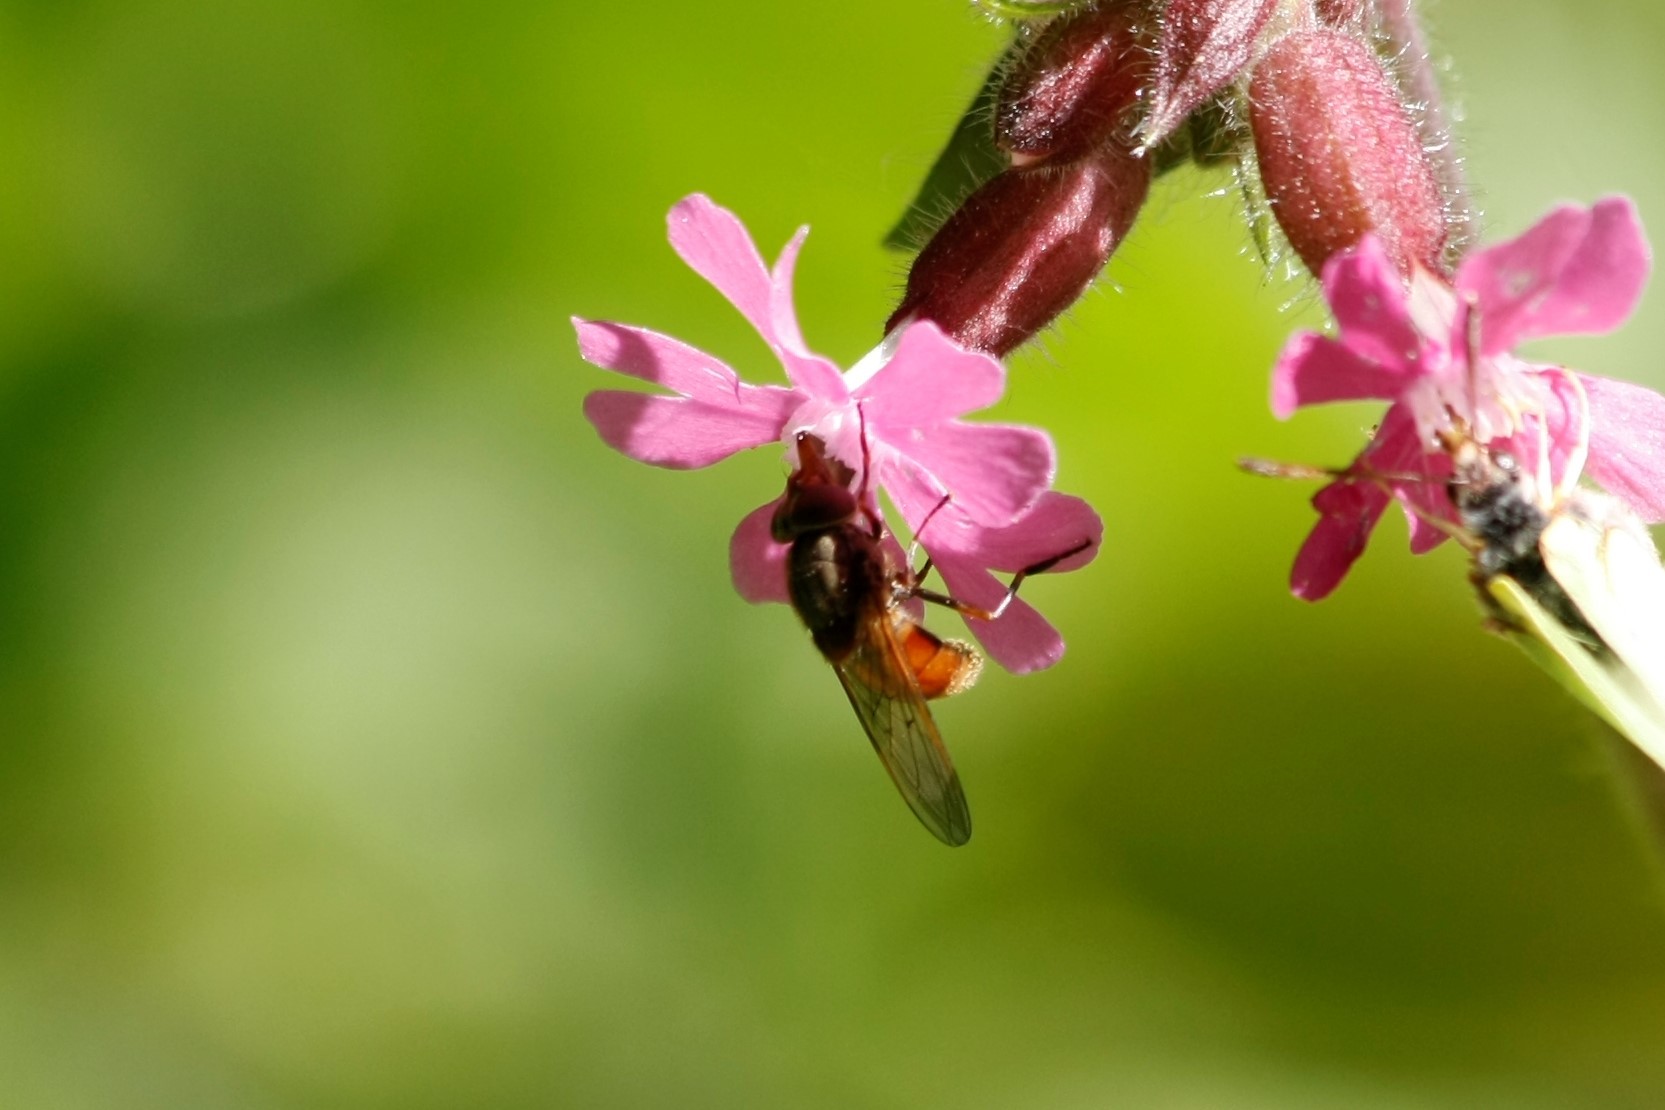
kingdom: Animalia
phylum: Arthropoda
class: Insecta
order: Diptera
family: Syrphidae
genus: Rhingia
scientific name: Rhingia campestris
